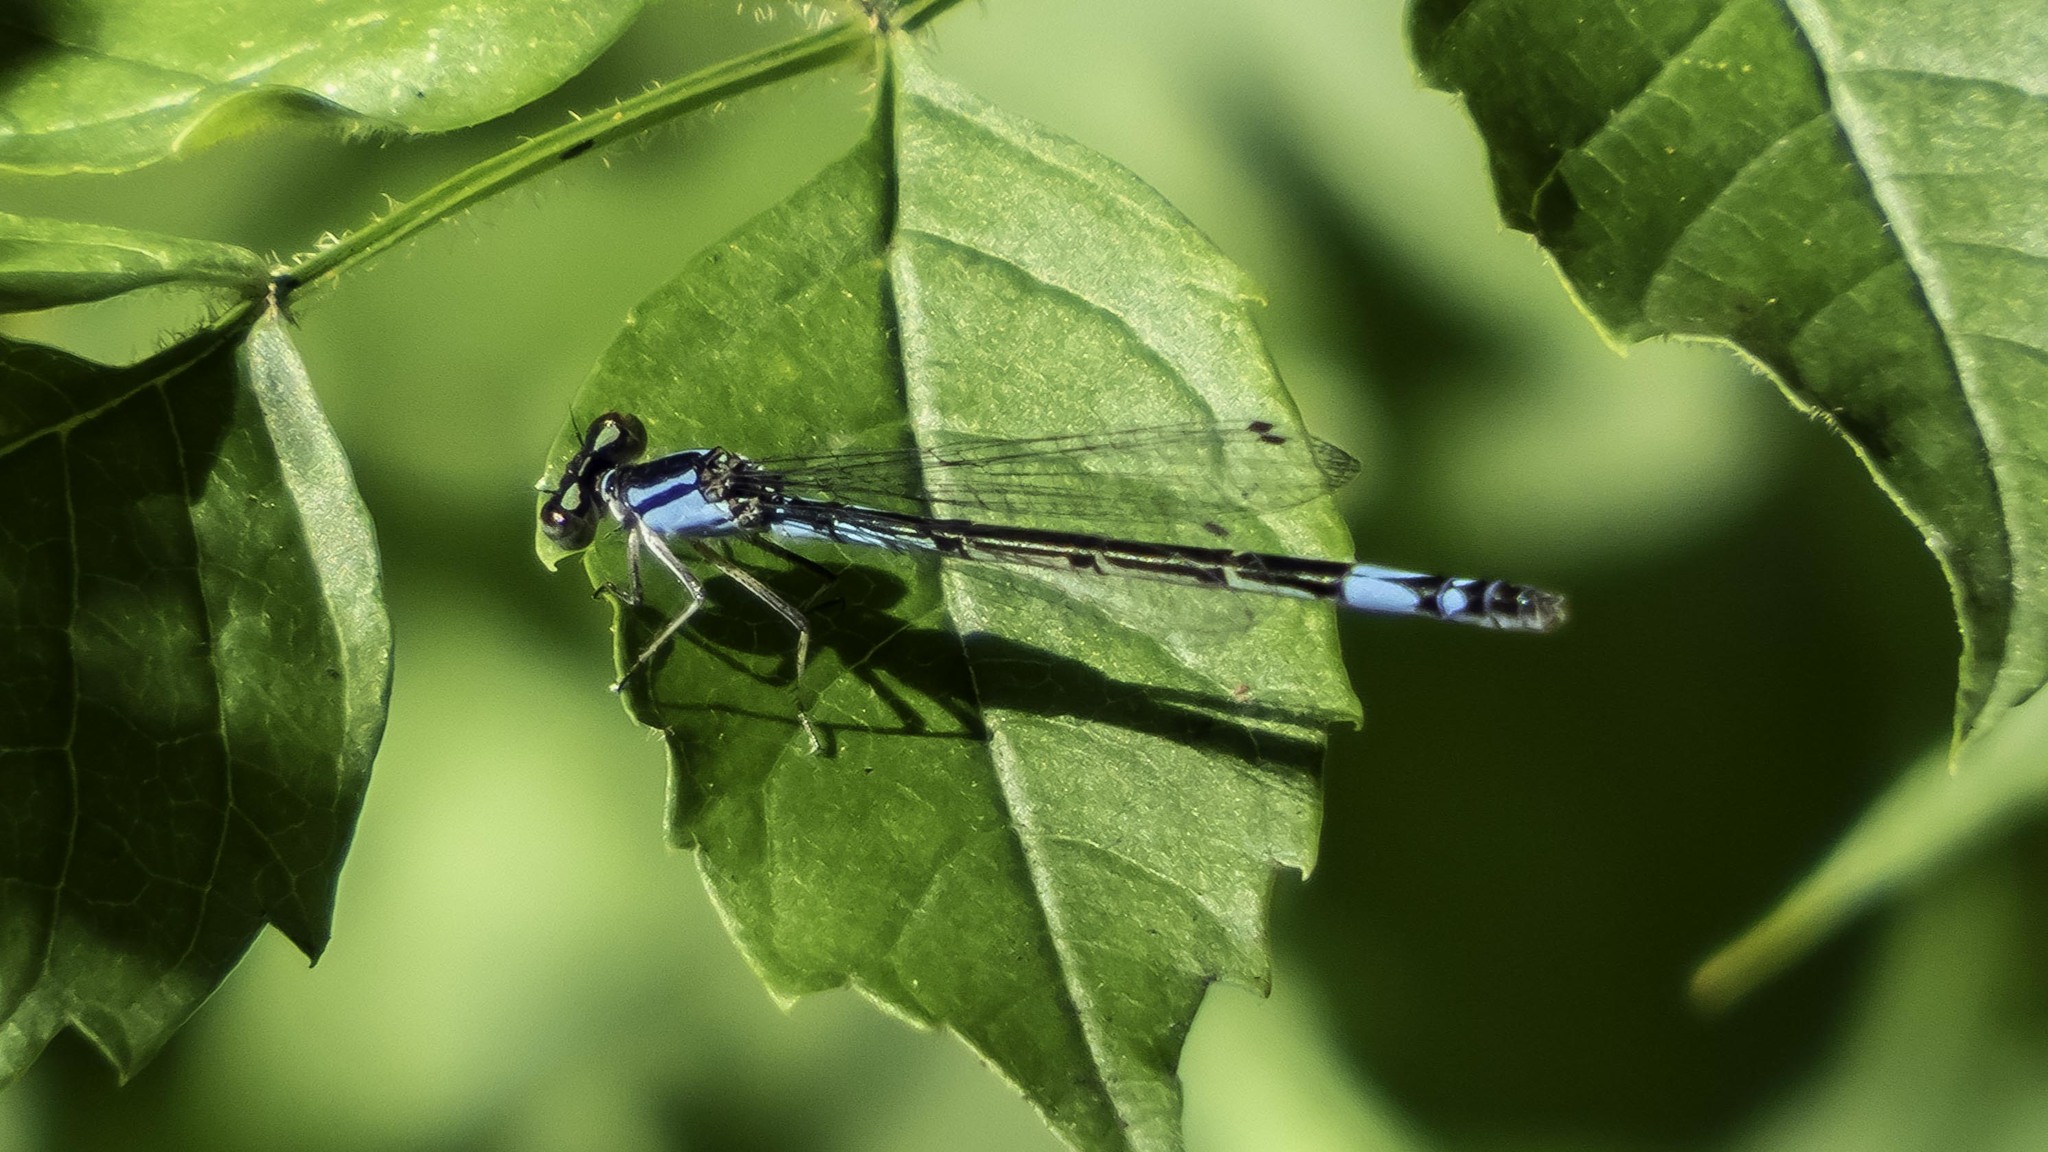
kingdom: Animalia
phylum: Arthropoda
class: Insecta
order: Odonata
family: Coenagrionidae
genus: Enallagma
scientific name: Enallagma aspersum
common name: Azure bluet
